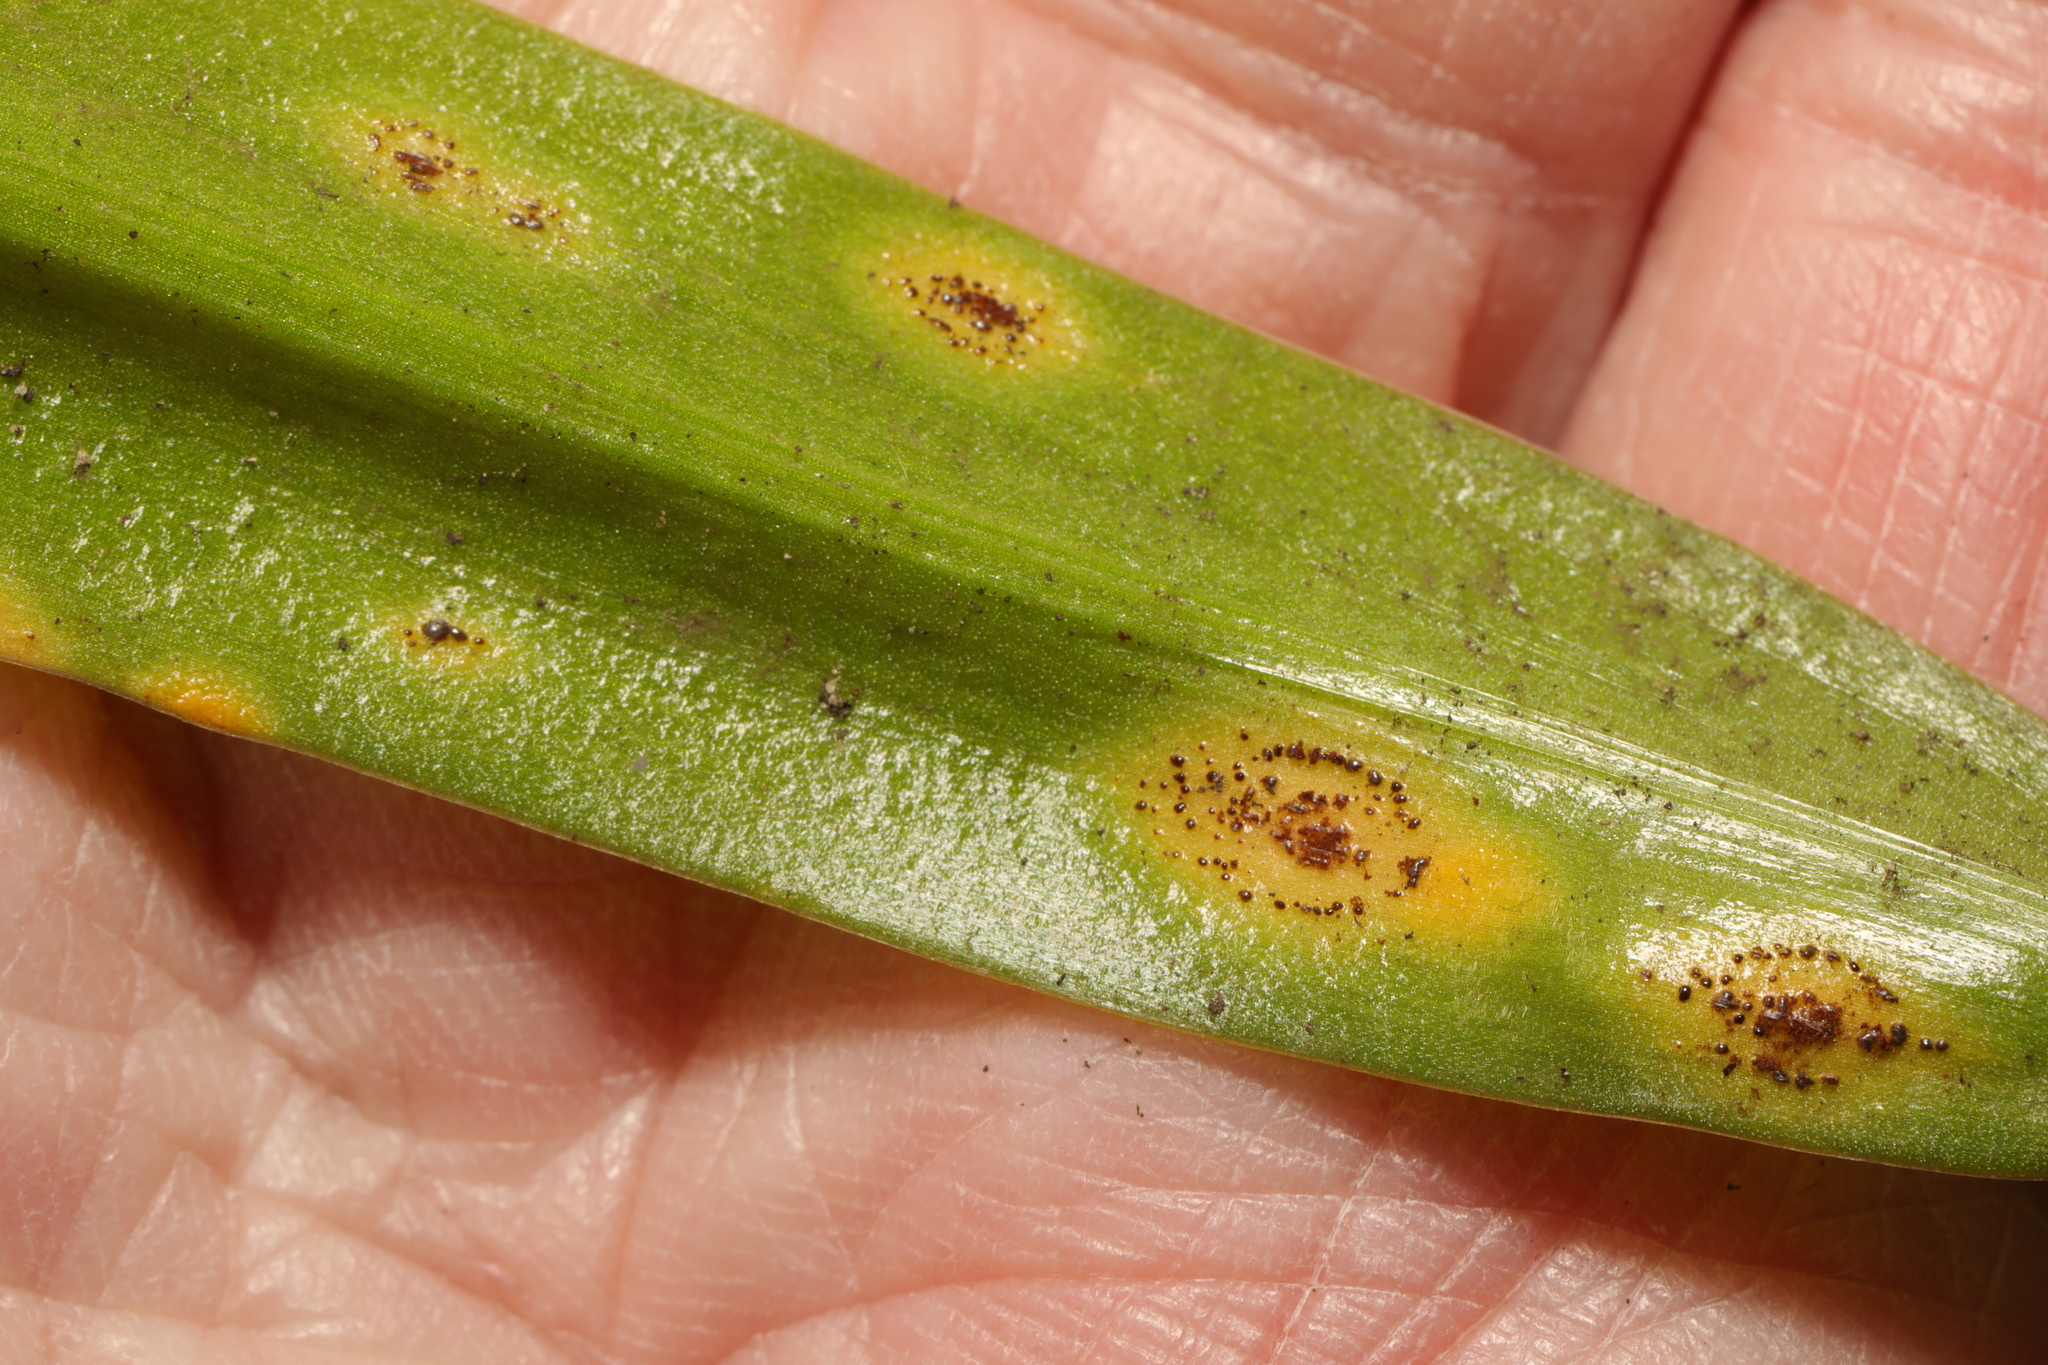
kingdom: Fungi
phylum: Basidiomycota
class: Pucciniomycetes
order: Pucciniales
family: Pucciniaceae
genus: Uromyces
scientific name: Uromyces hyacinthi
